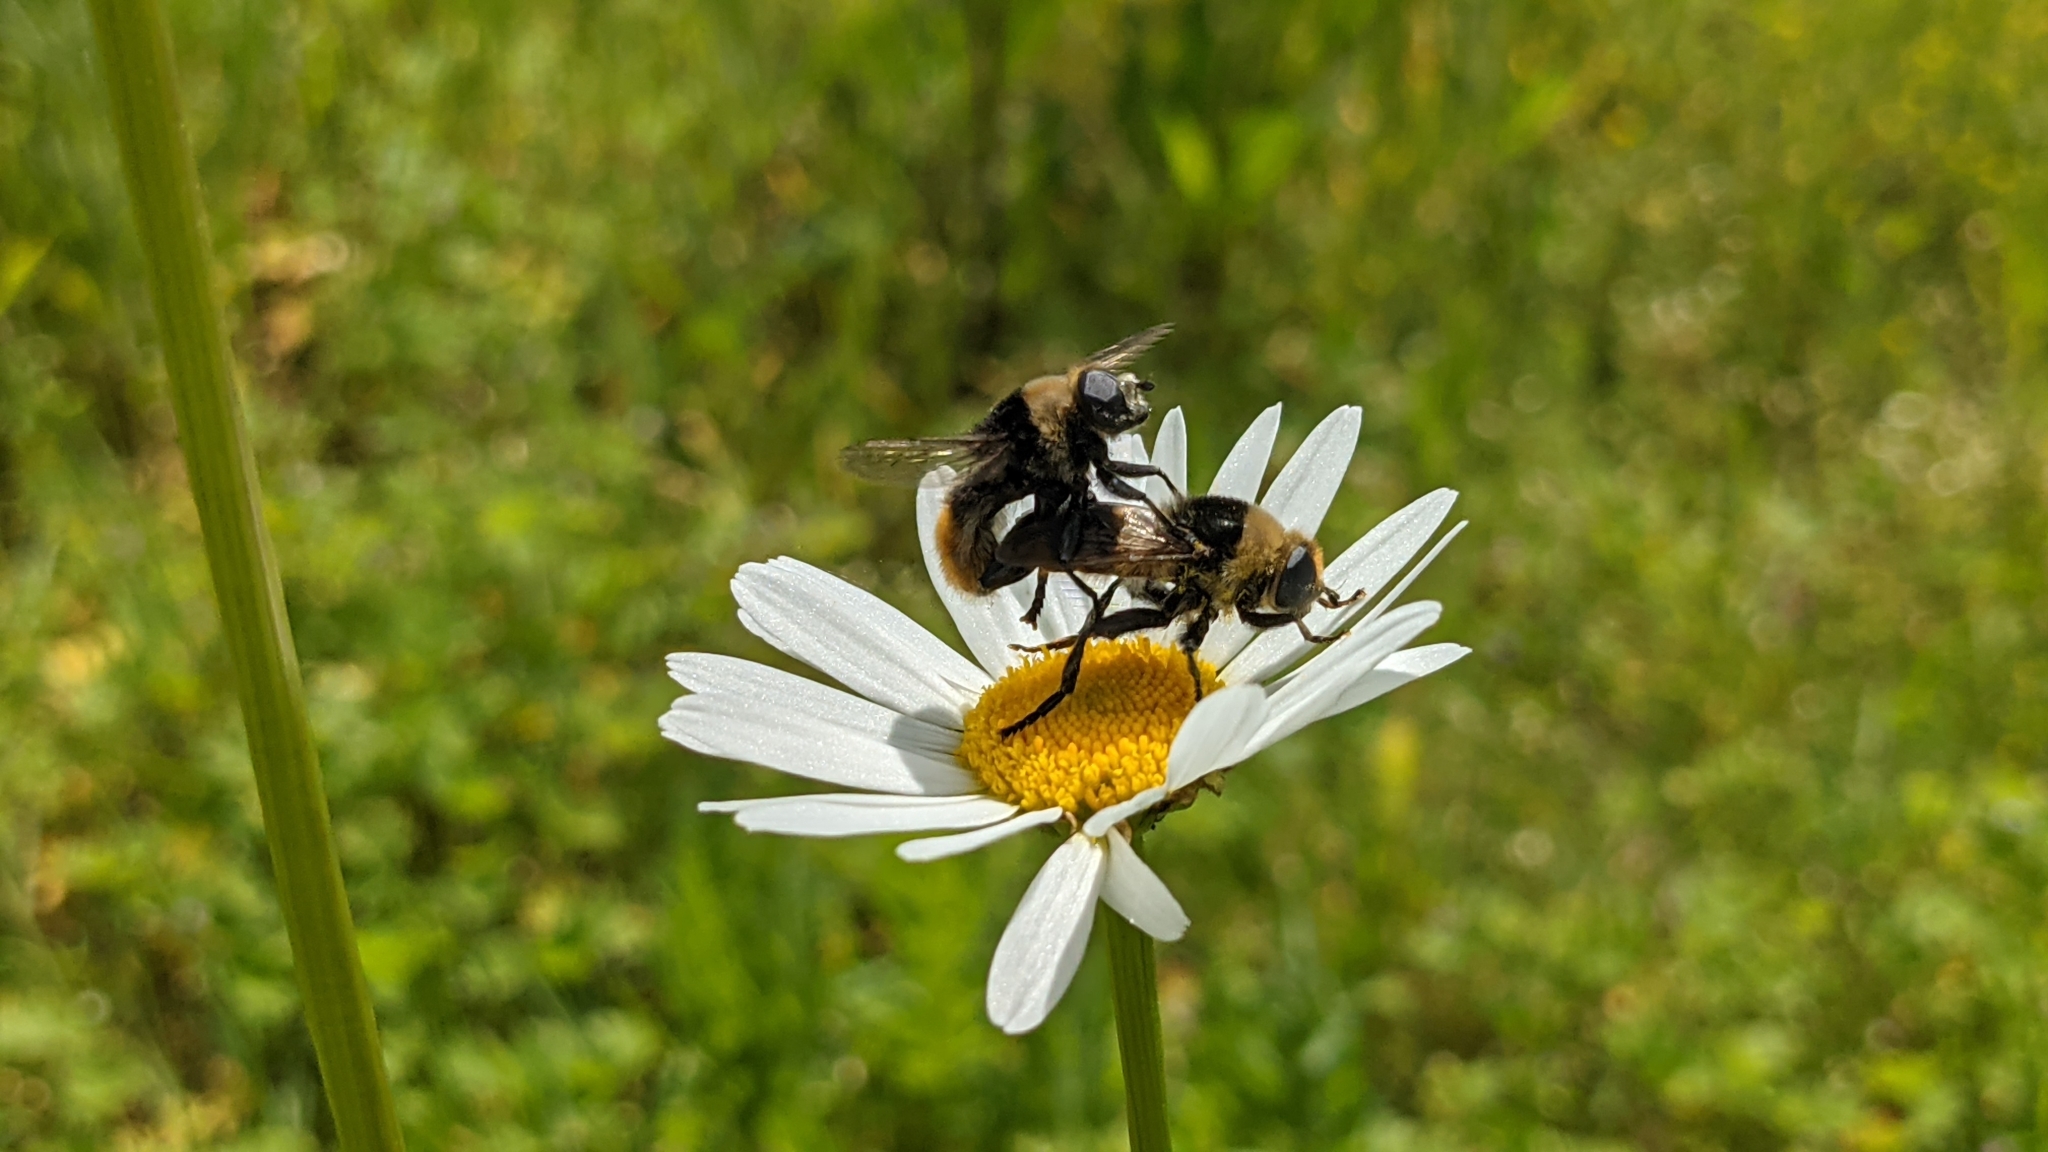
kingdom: Animalia
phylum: Arthropoda
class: Insecta
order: Diptera
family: Syrphidae
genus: Merodon
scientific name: Merodon equestris
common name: Greater bulb-fly
